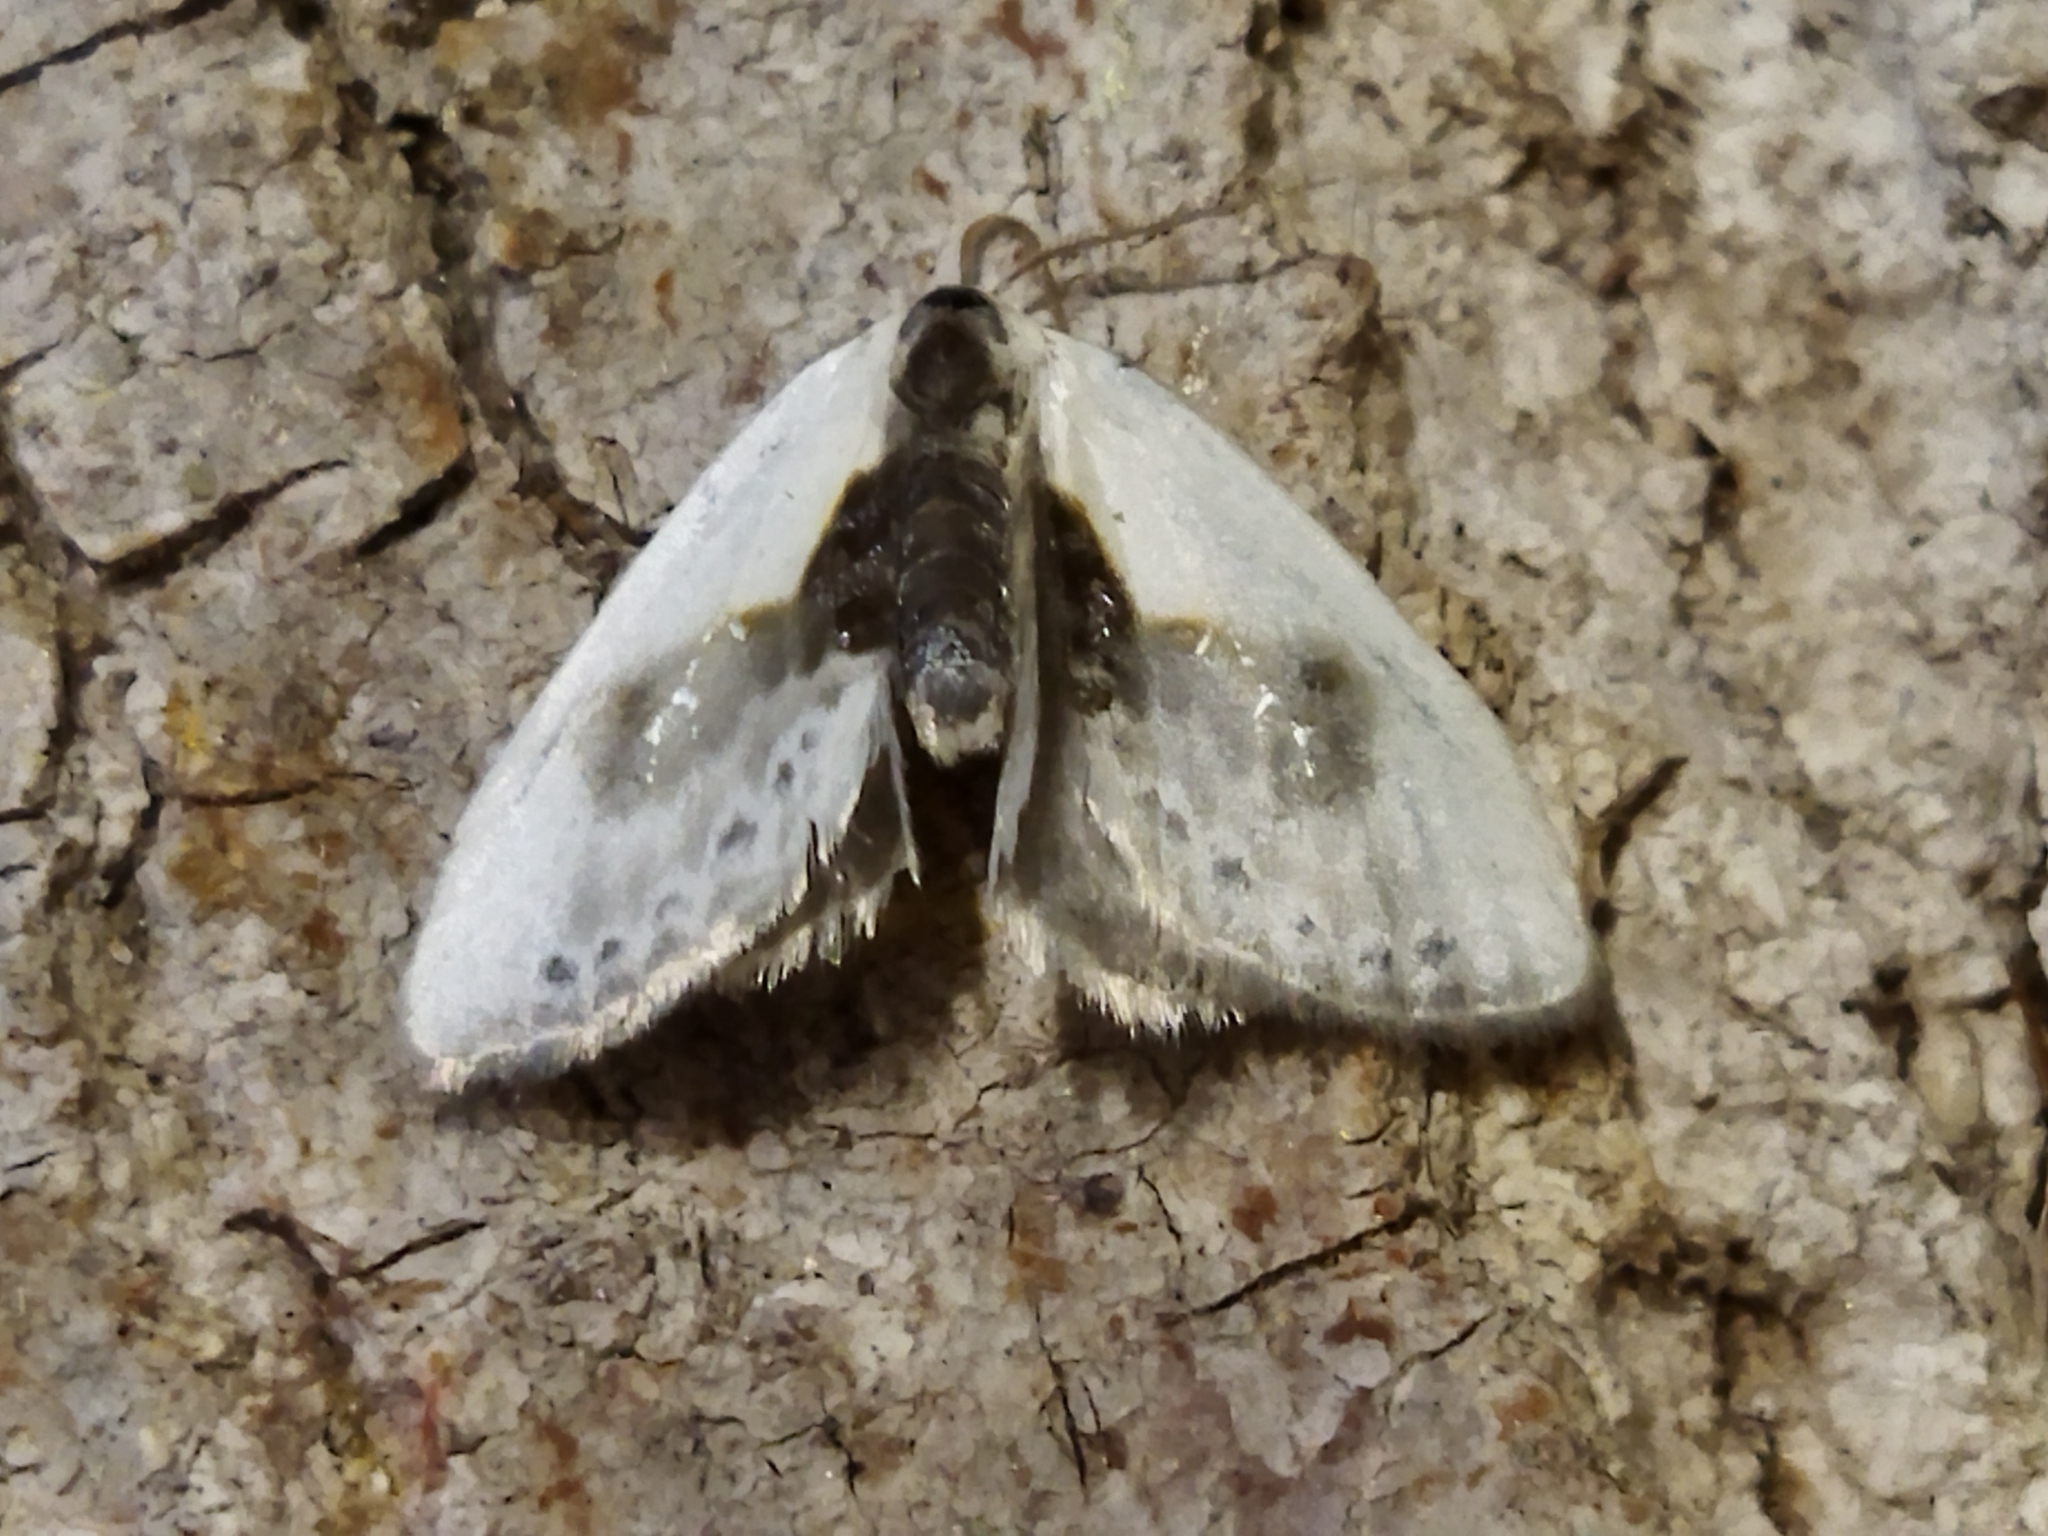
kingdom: Animalia
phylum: Arthropoda
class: Insecta
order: Lepidoptera
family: Drepanidae
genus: Cilix
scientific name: Cilix glaucata
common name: Chinese character
